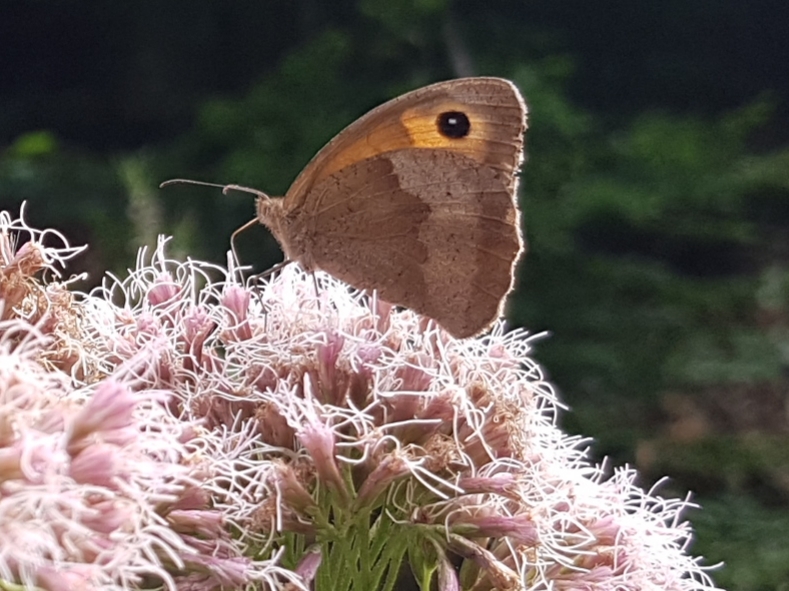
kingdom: Animalia
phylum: Arthropoda
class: Insecta
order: Lepidoptera
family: Nymphalidae
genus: Maniola
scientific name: Maniola jurtina
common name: Meadow brown
